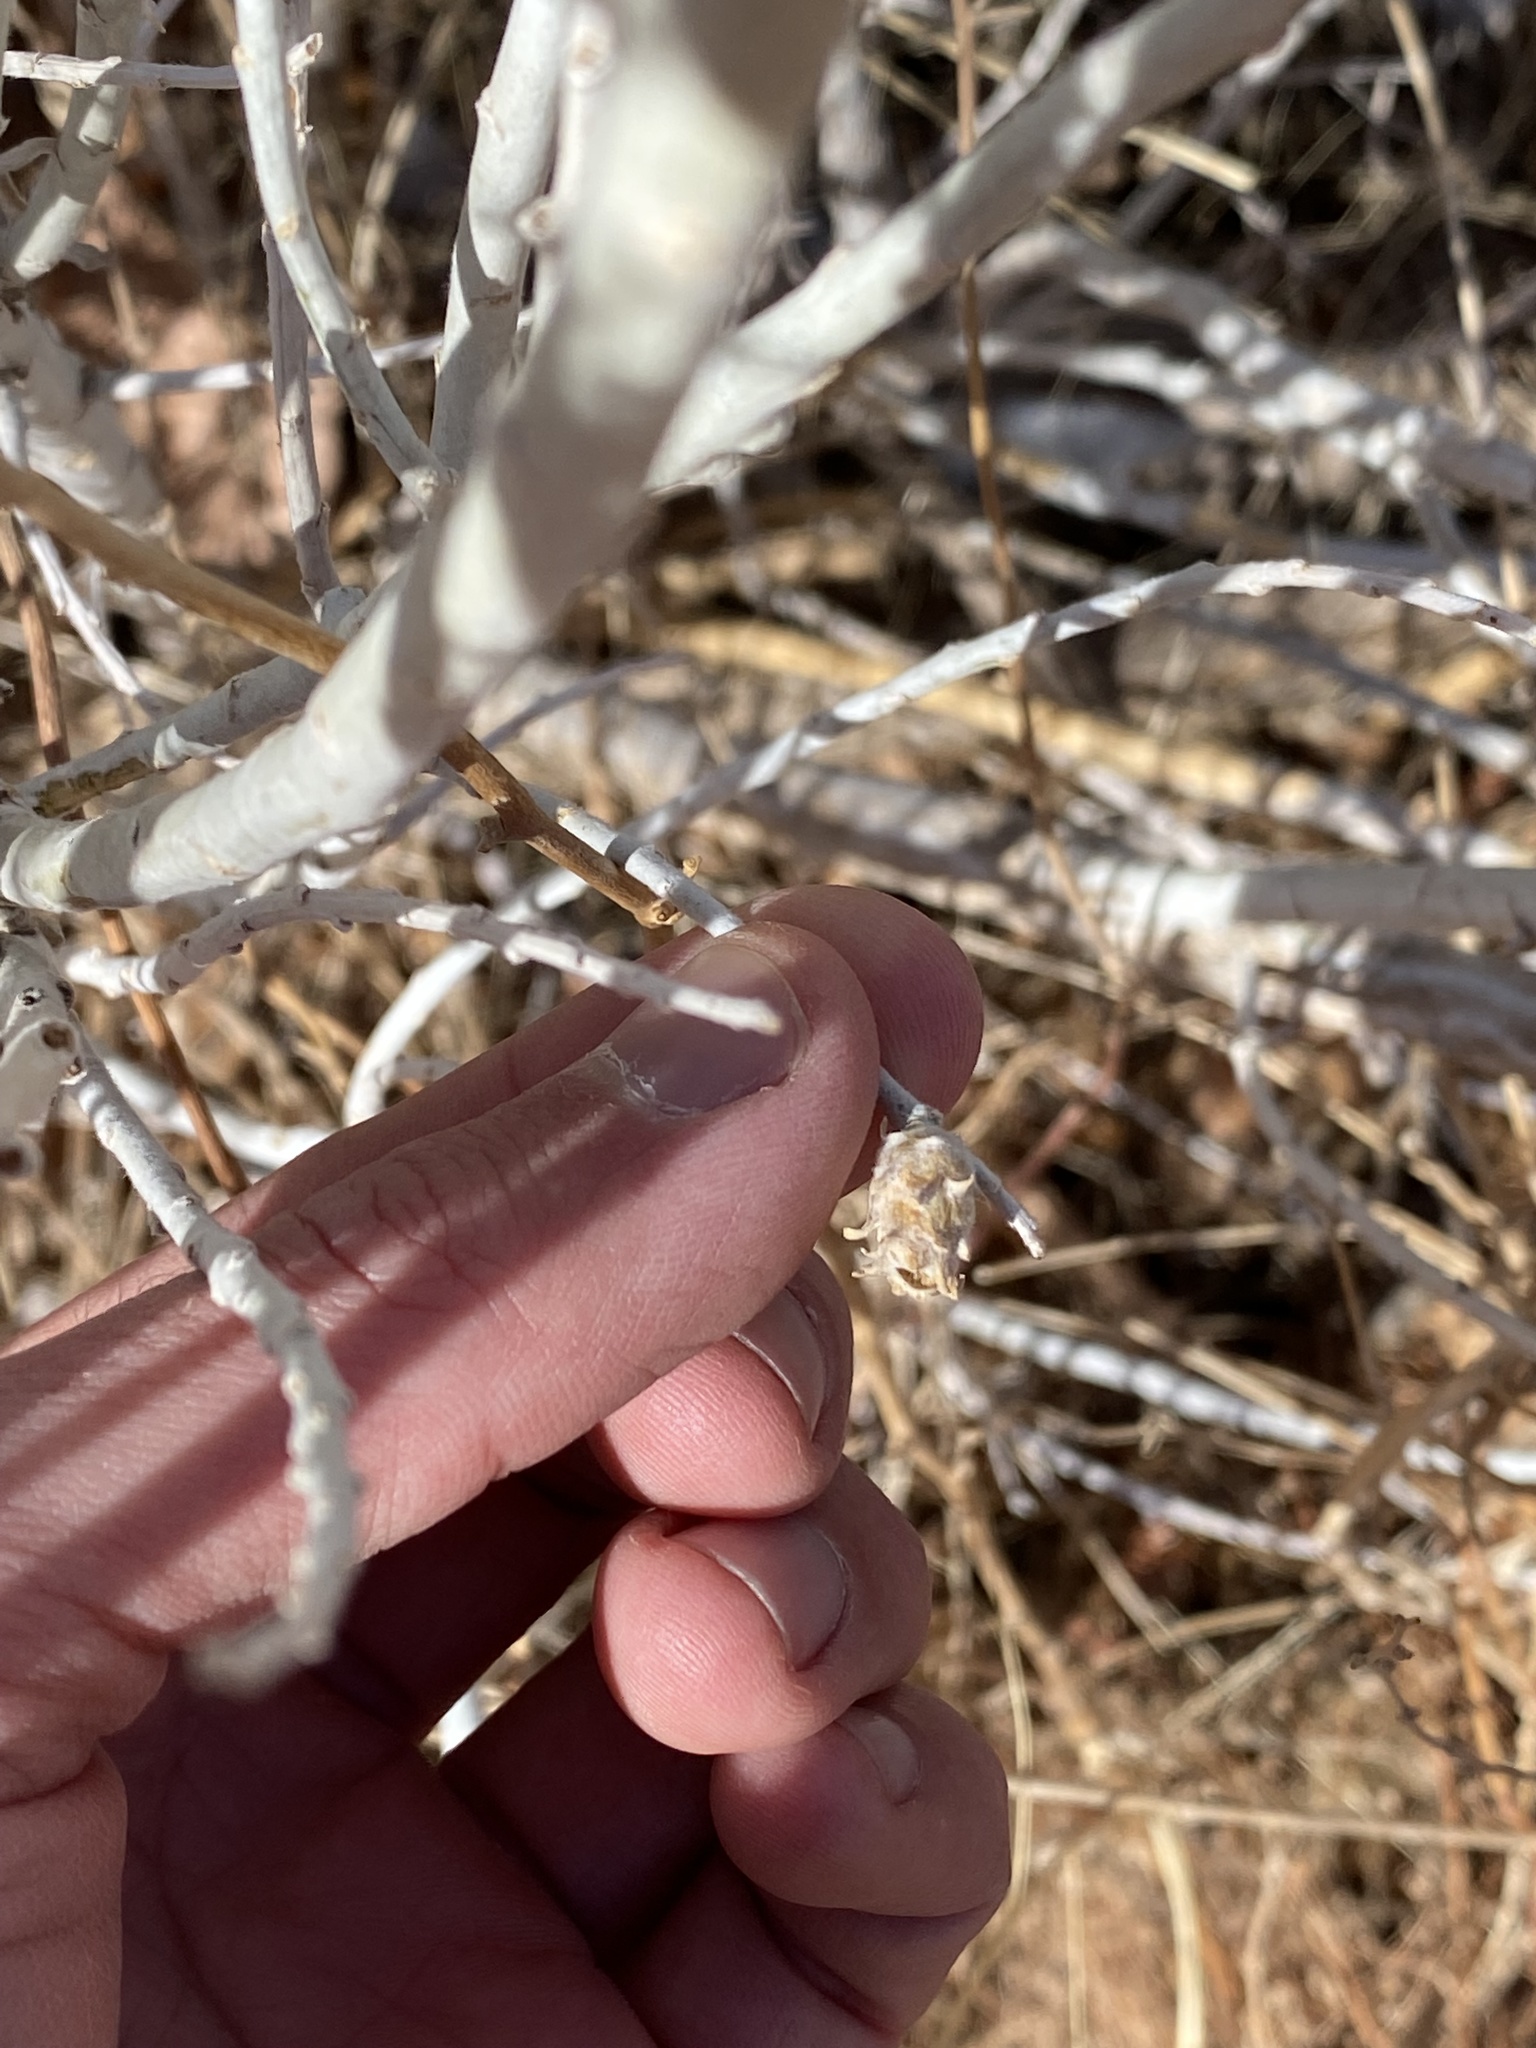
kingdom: Animalia
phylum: Arthropoda
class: Insecta
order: Diptera
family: Cecidomyiidae
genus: Rhopalomyia
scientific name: Rhopalomyia utahensis
